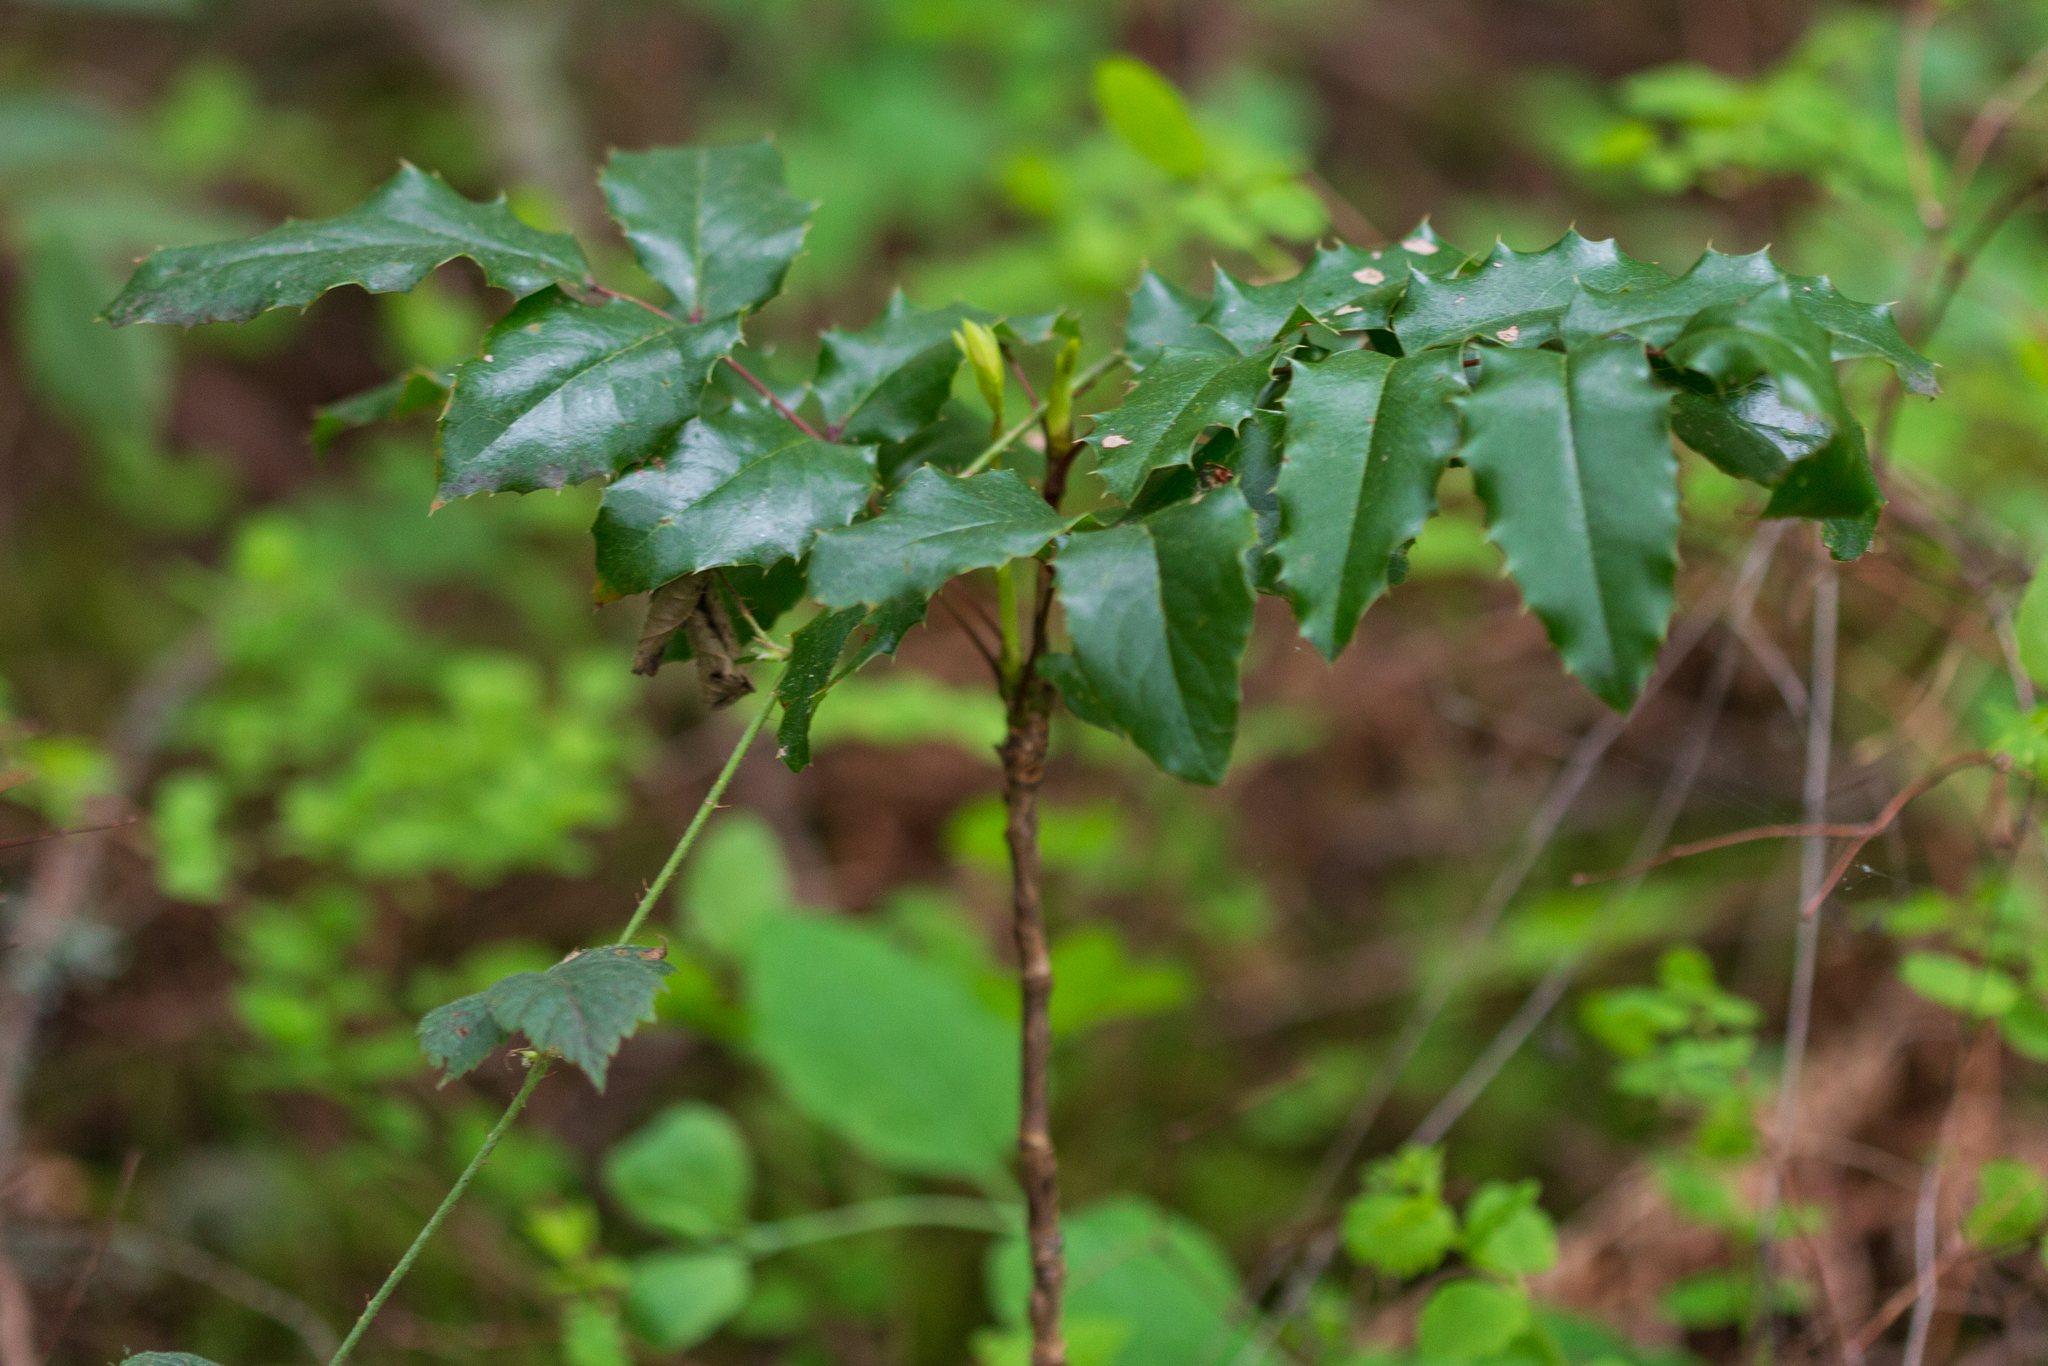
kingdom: Plantae
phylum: Tracheophyta
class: Magnoliopsida
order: Ranunculales
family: Berberidaceae
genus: Mahonia
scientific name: Mahonia aquifolium
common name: Oregon-grape
